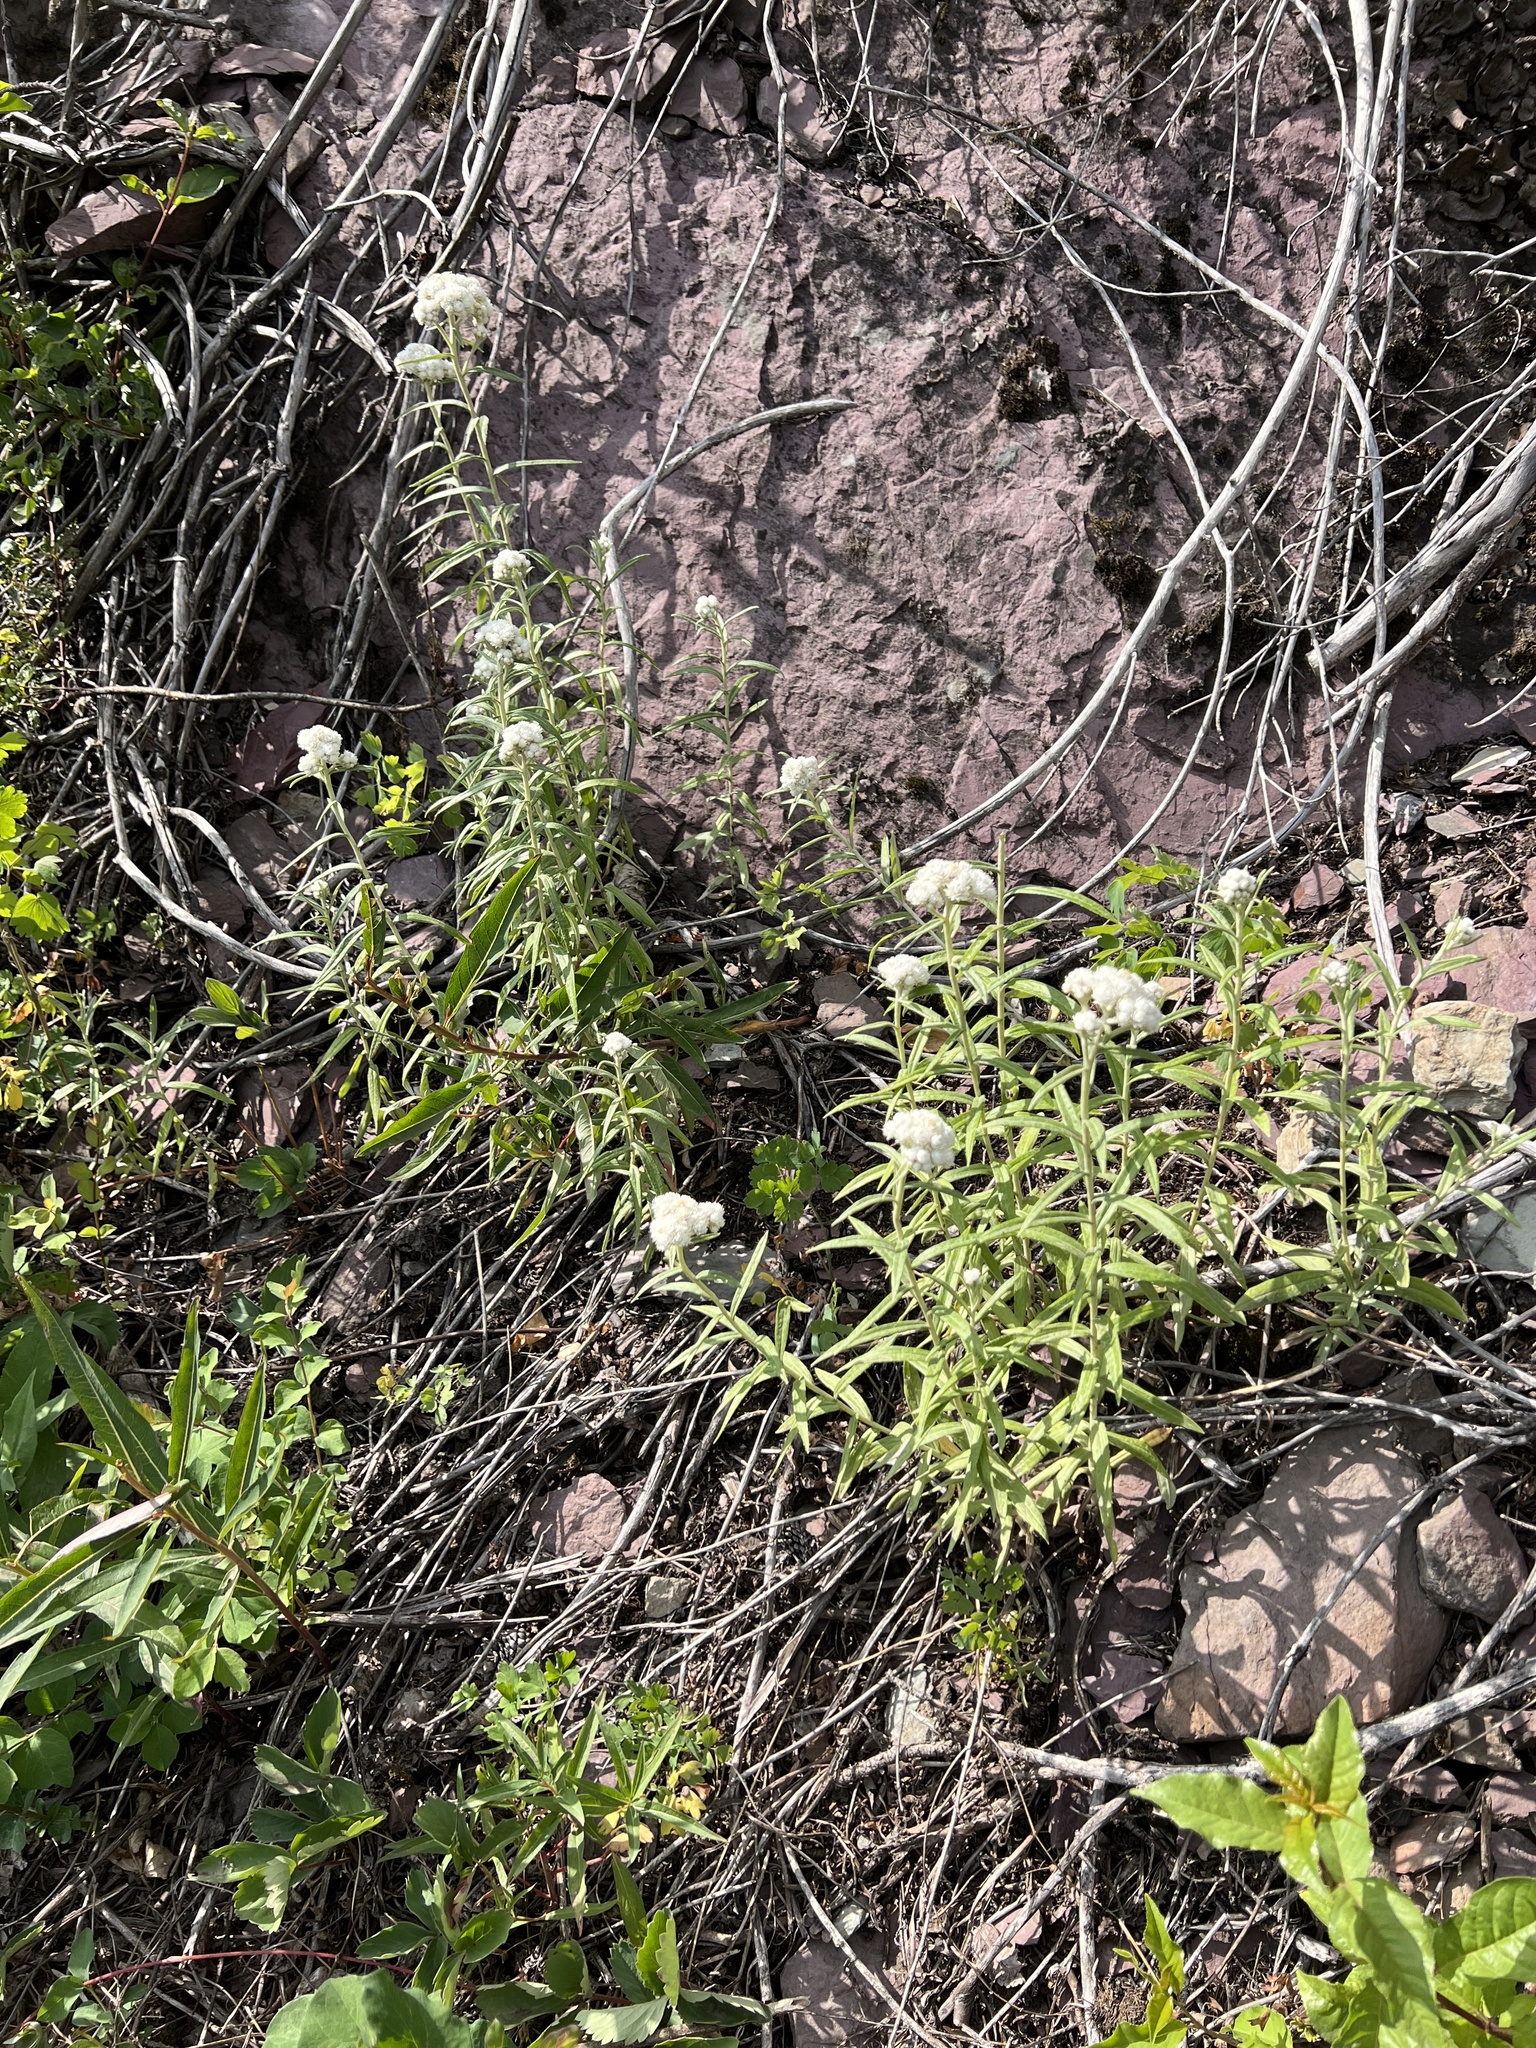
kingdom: Plantae
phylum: Tracheophyta
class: Magnoliopsida
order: Asterales
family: Asteraceae
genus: Anaphalis
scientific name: Anaphalis margaritacea
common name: Pearly everlasting
